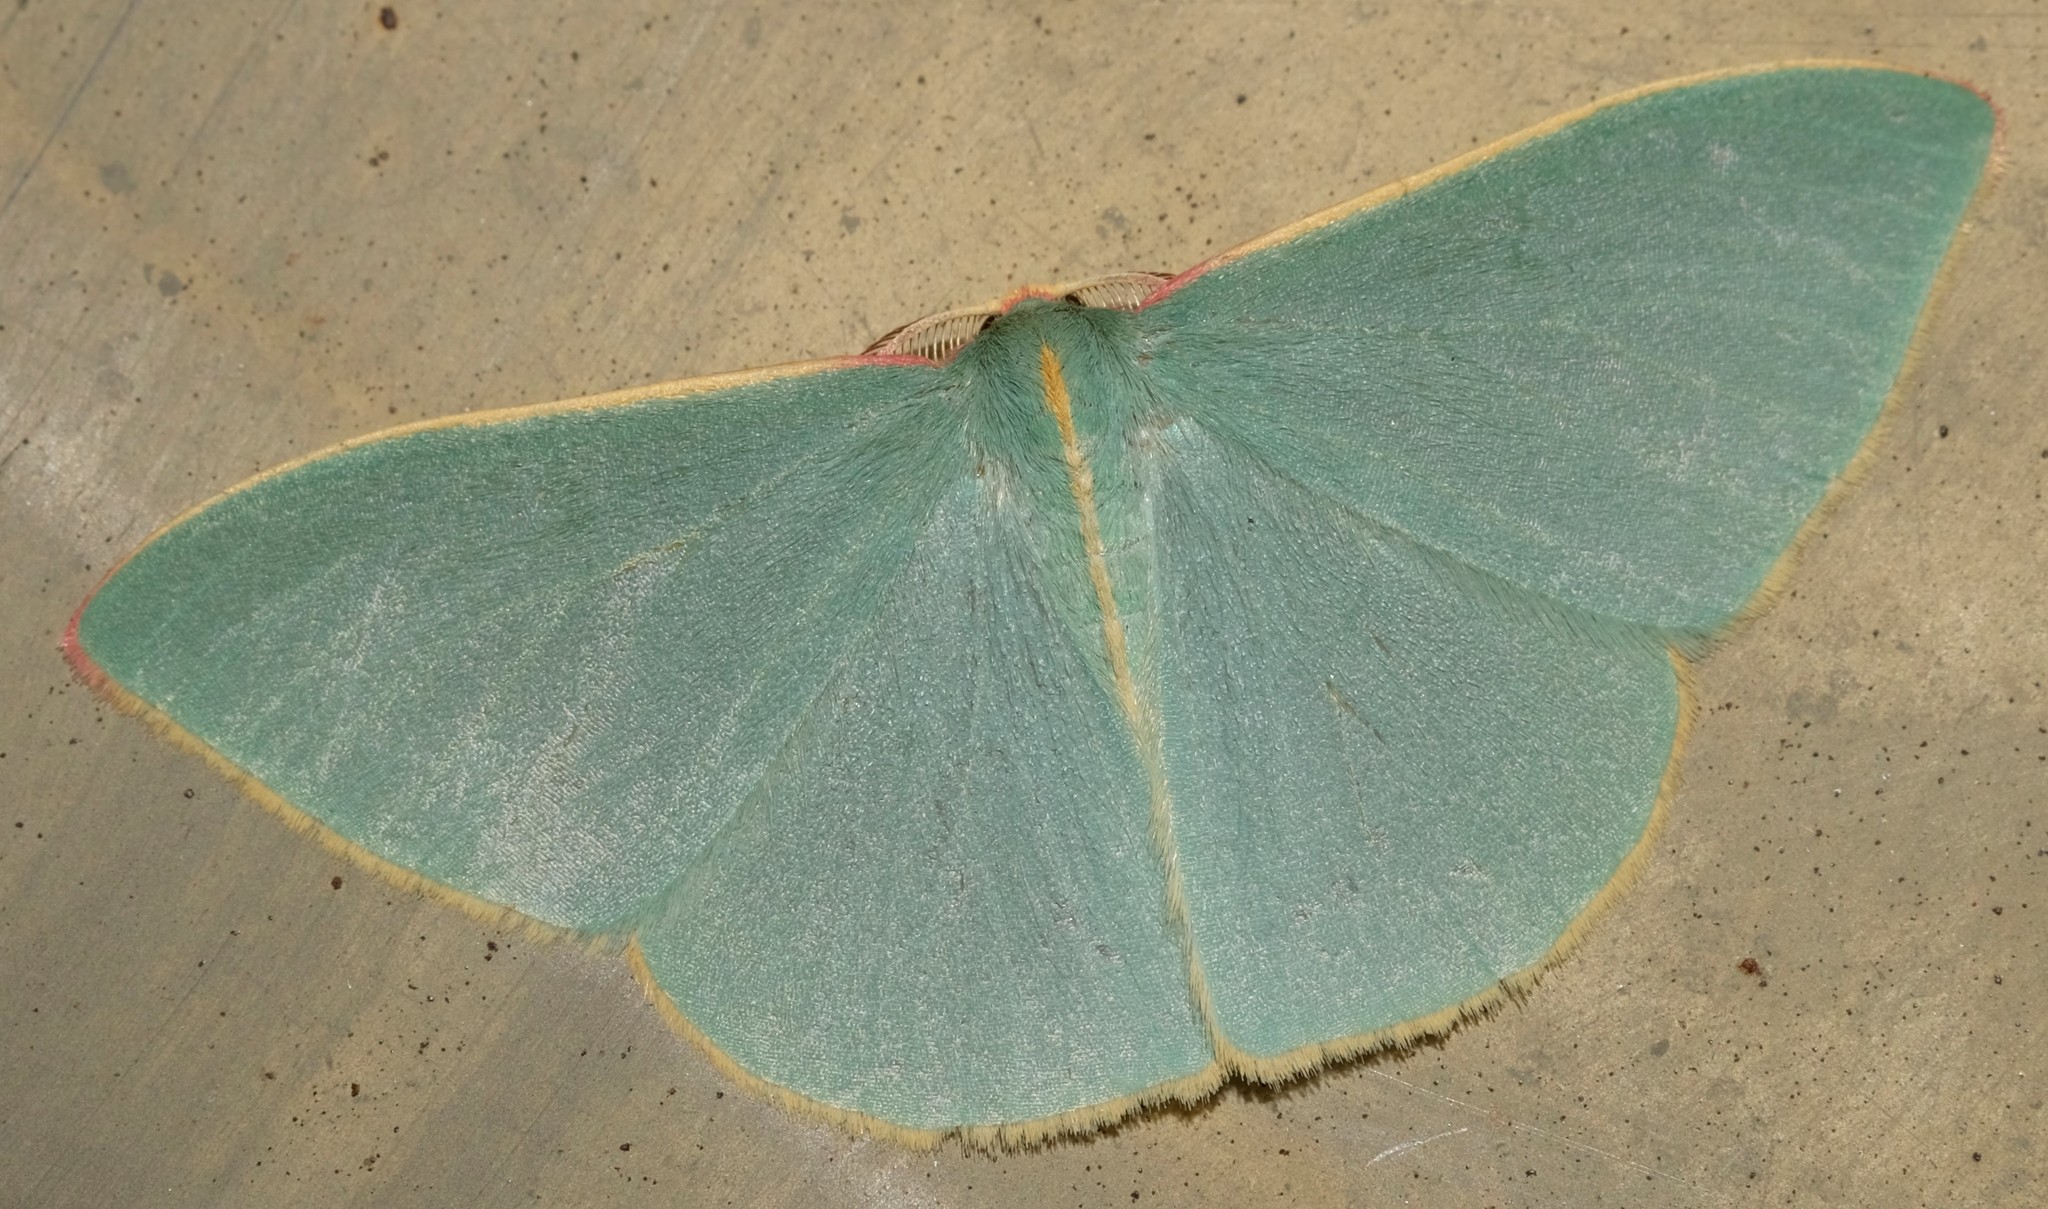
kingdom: Animalia
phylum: Arthropoda
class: Insecta
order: Lepidoptera
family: Geometridae
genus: Chlorocoma
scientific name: Chlorocoma assimilis
